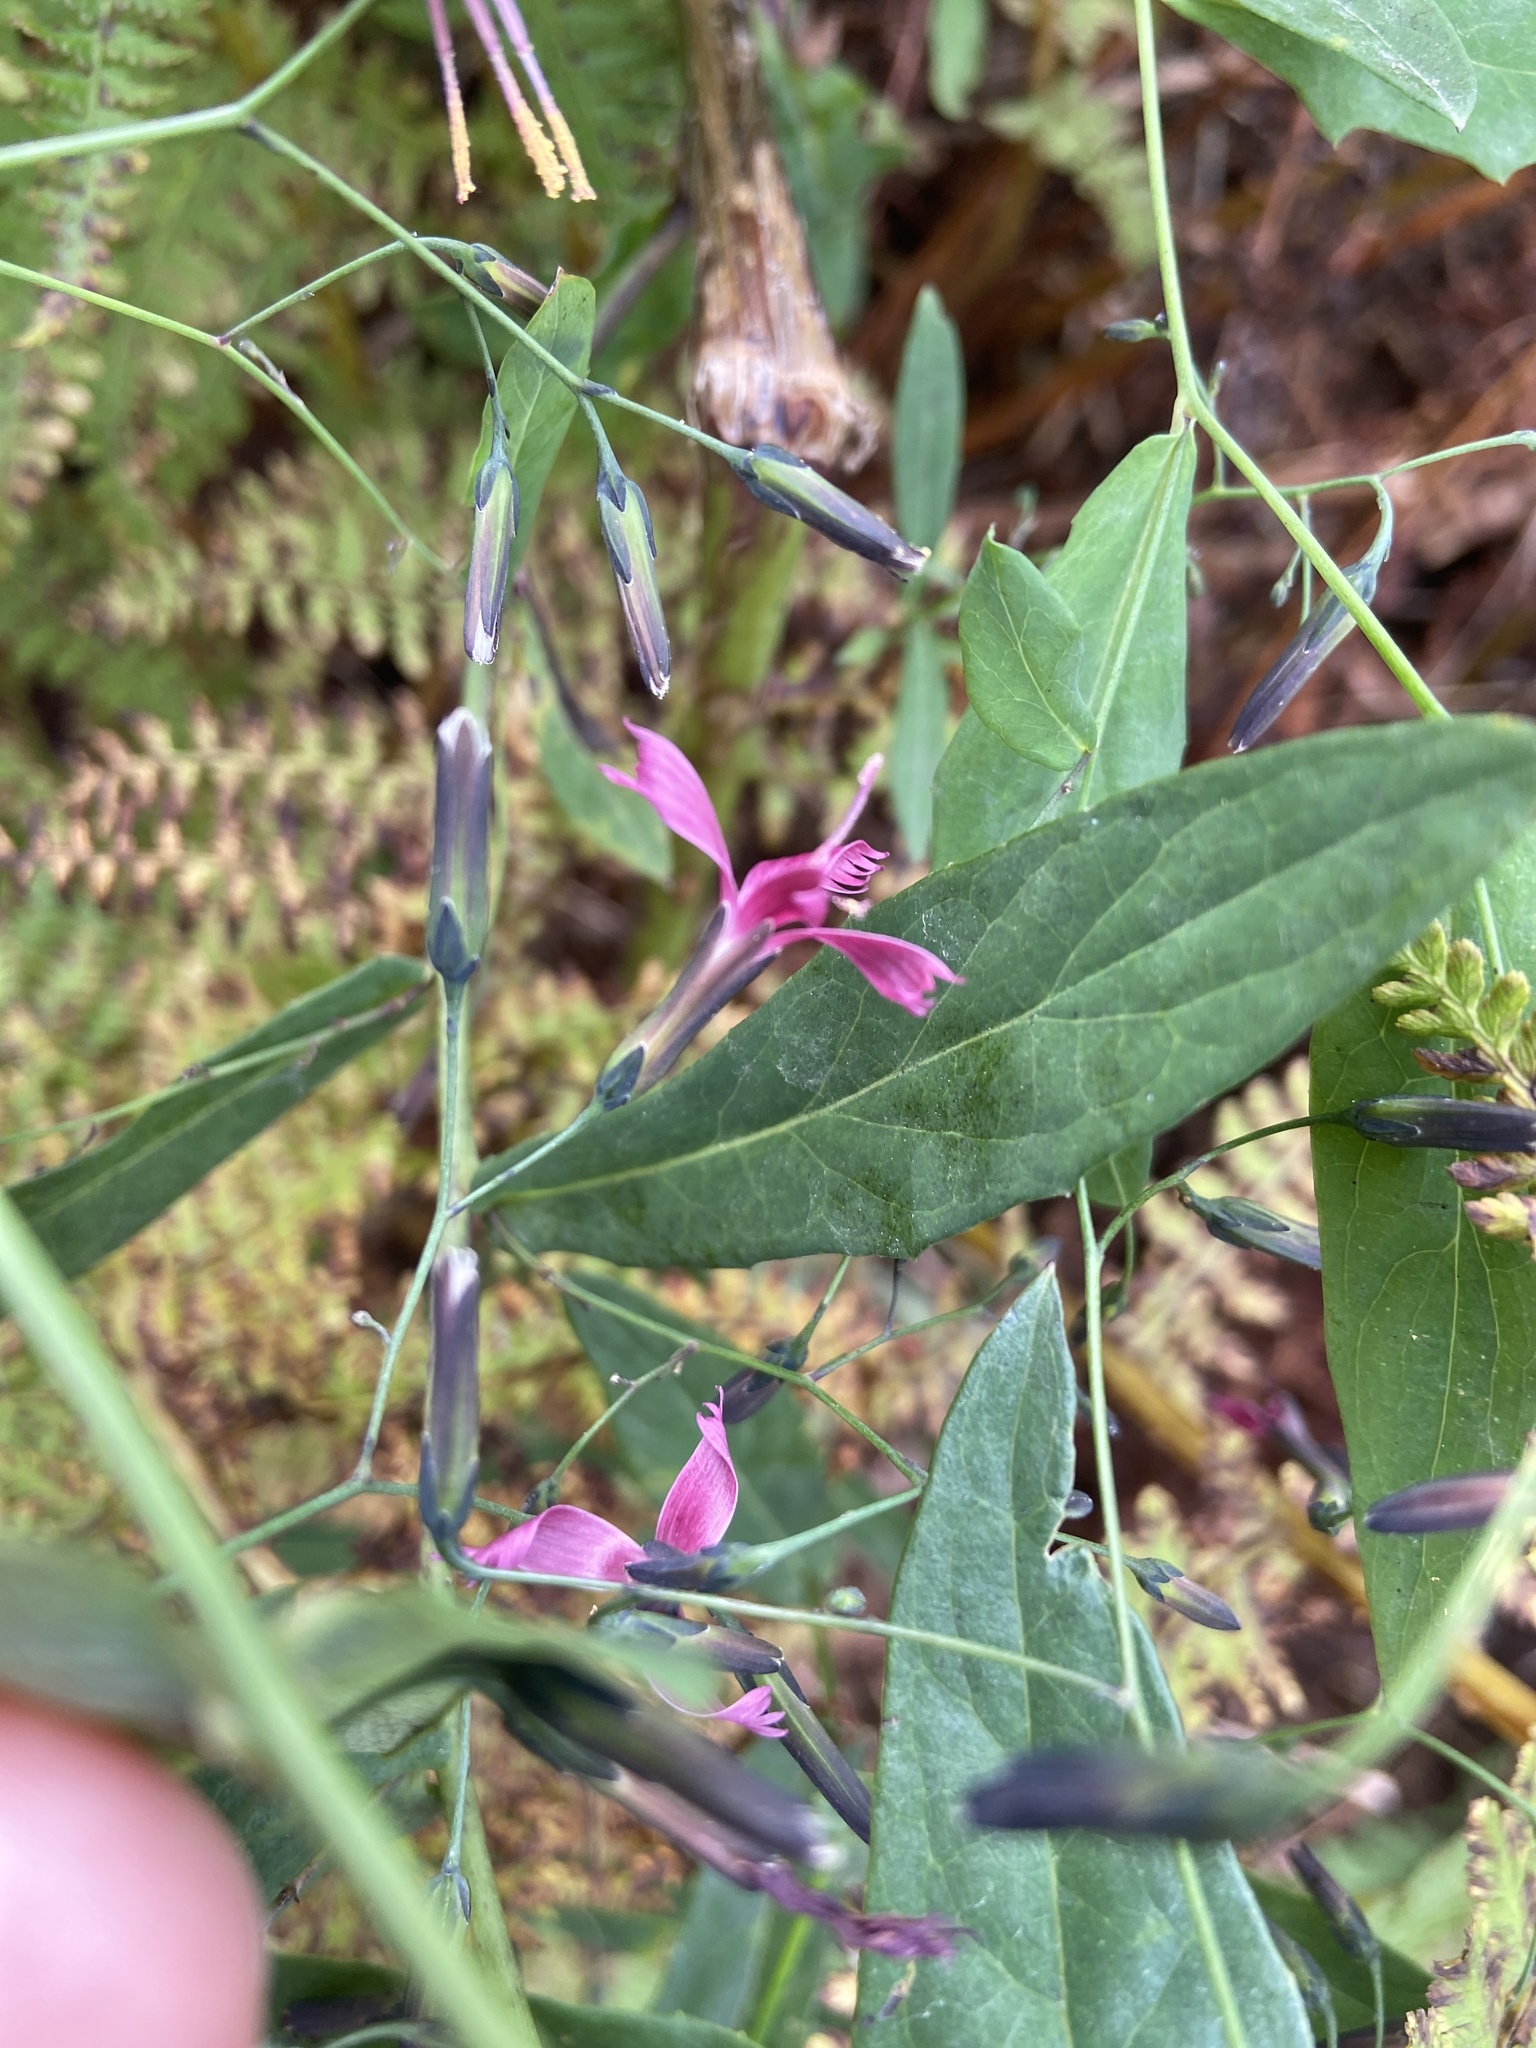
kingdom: Plantae
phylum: Tracheophyta
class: Magnoliopsida
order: Asterales
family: Asteraceae
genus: Prenanthes
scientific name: Prenanthes purpurea
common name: Purple lettuce
